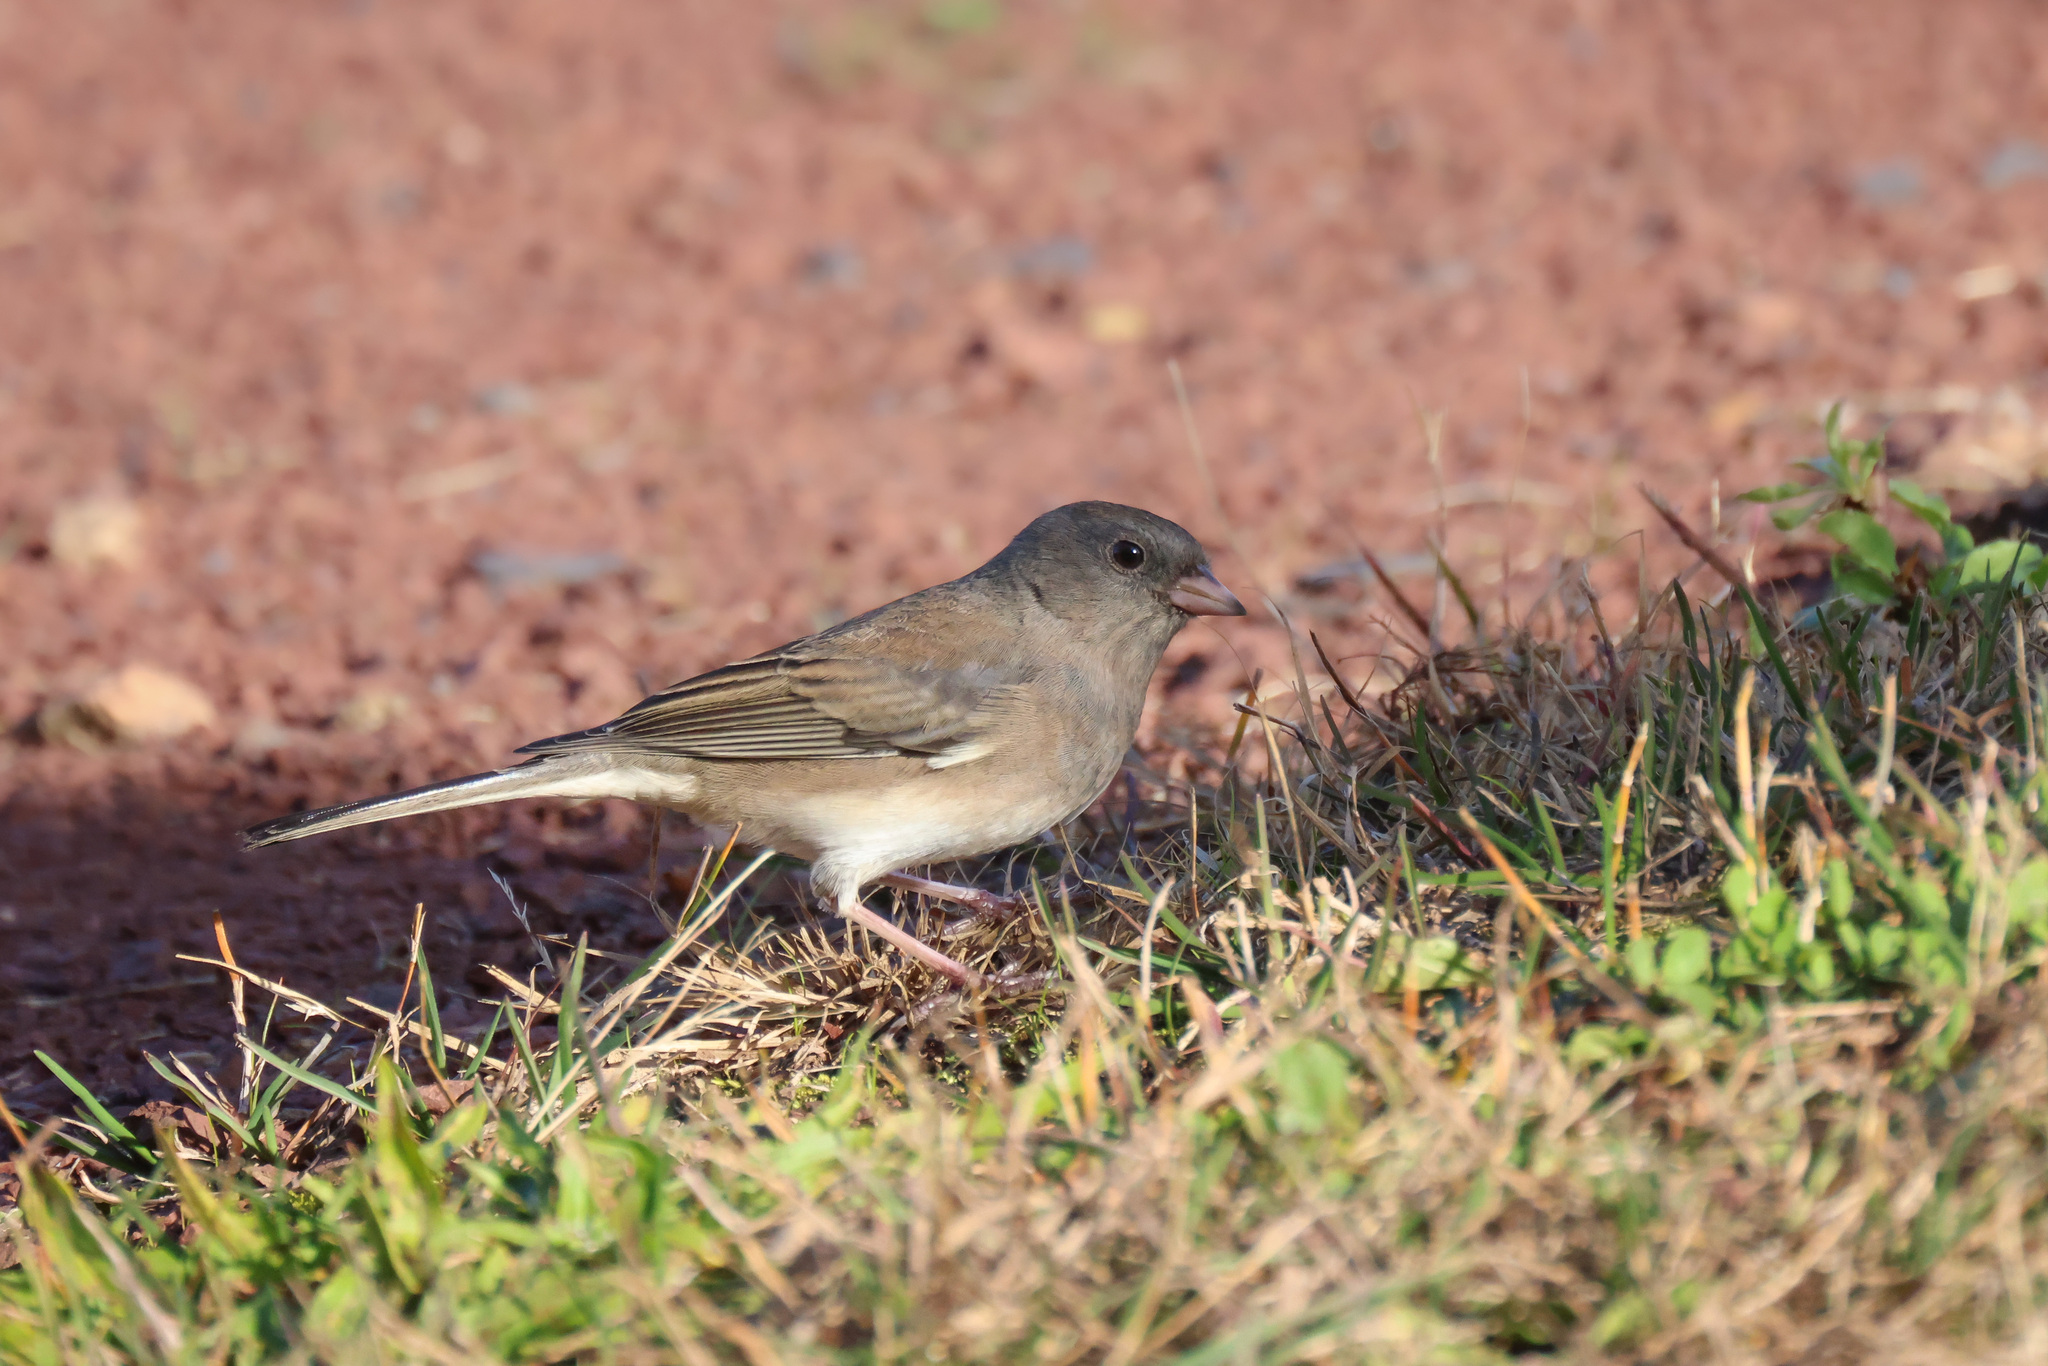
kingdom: Animalia
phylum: Chordata
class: Aves
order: Passeriformes
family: Passerellidae
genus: Junco
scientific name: Junco hyemalis
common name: Dark-eyed junco
